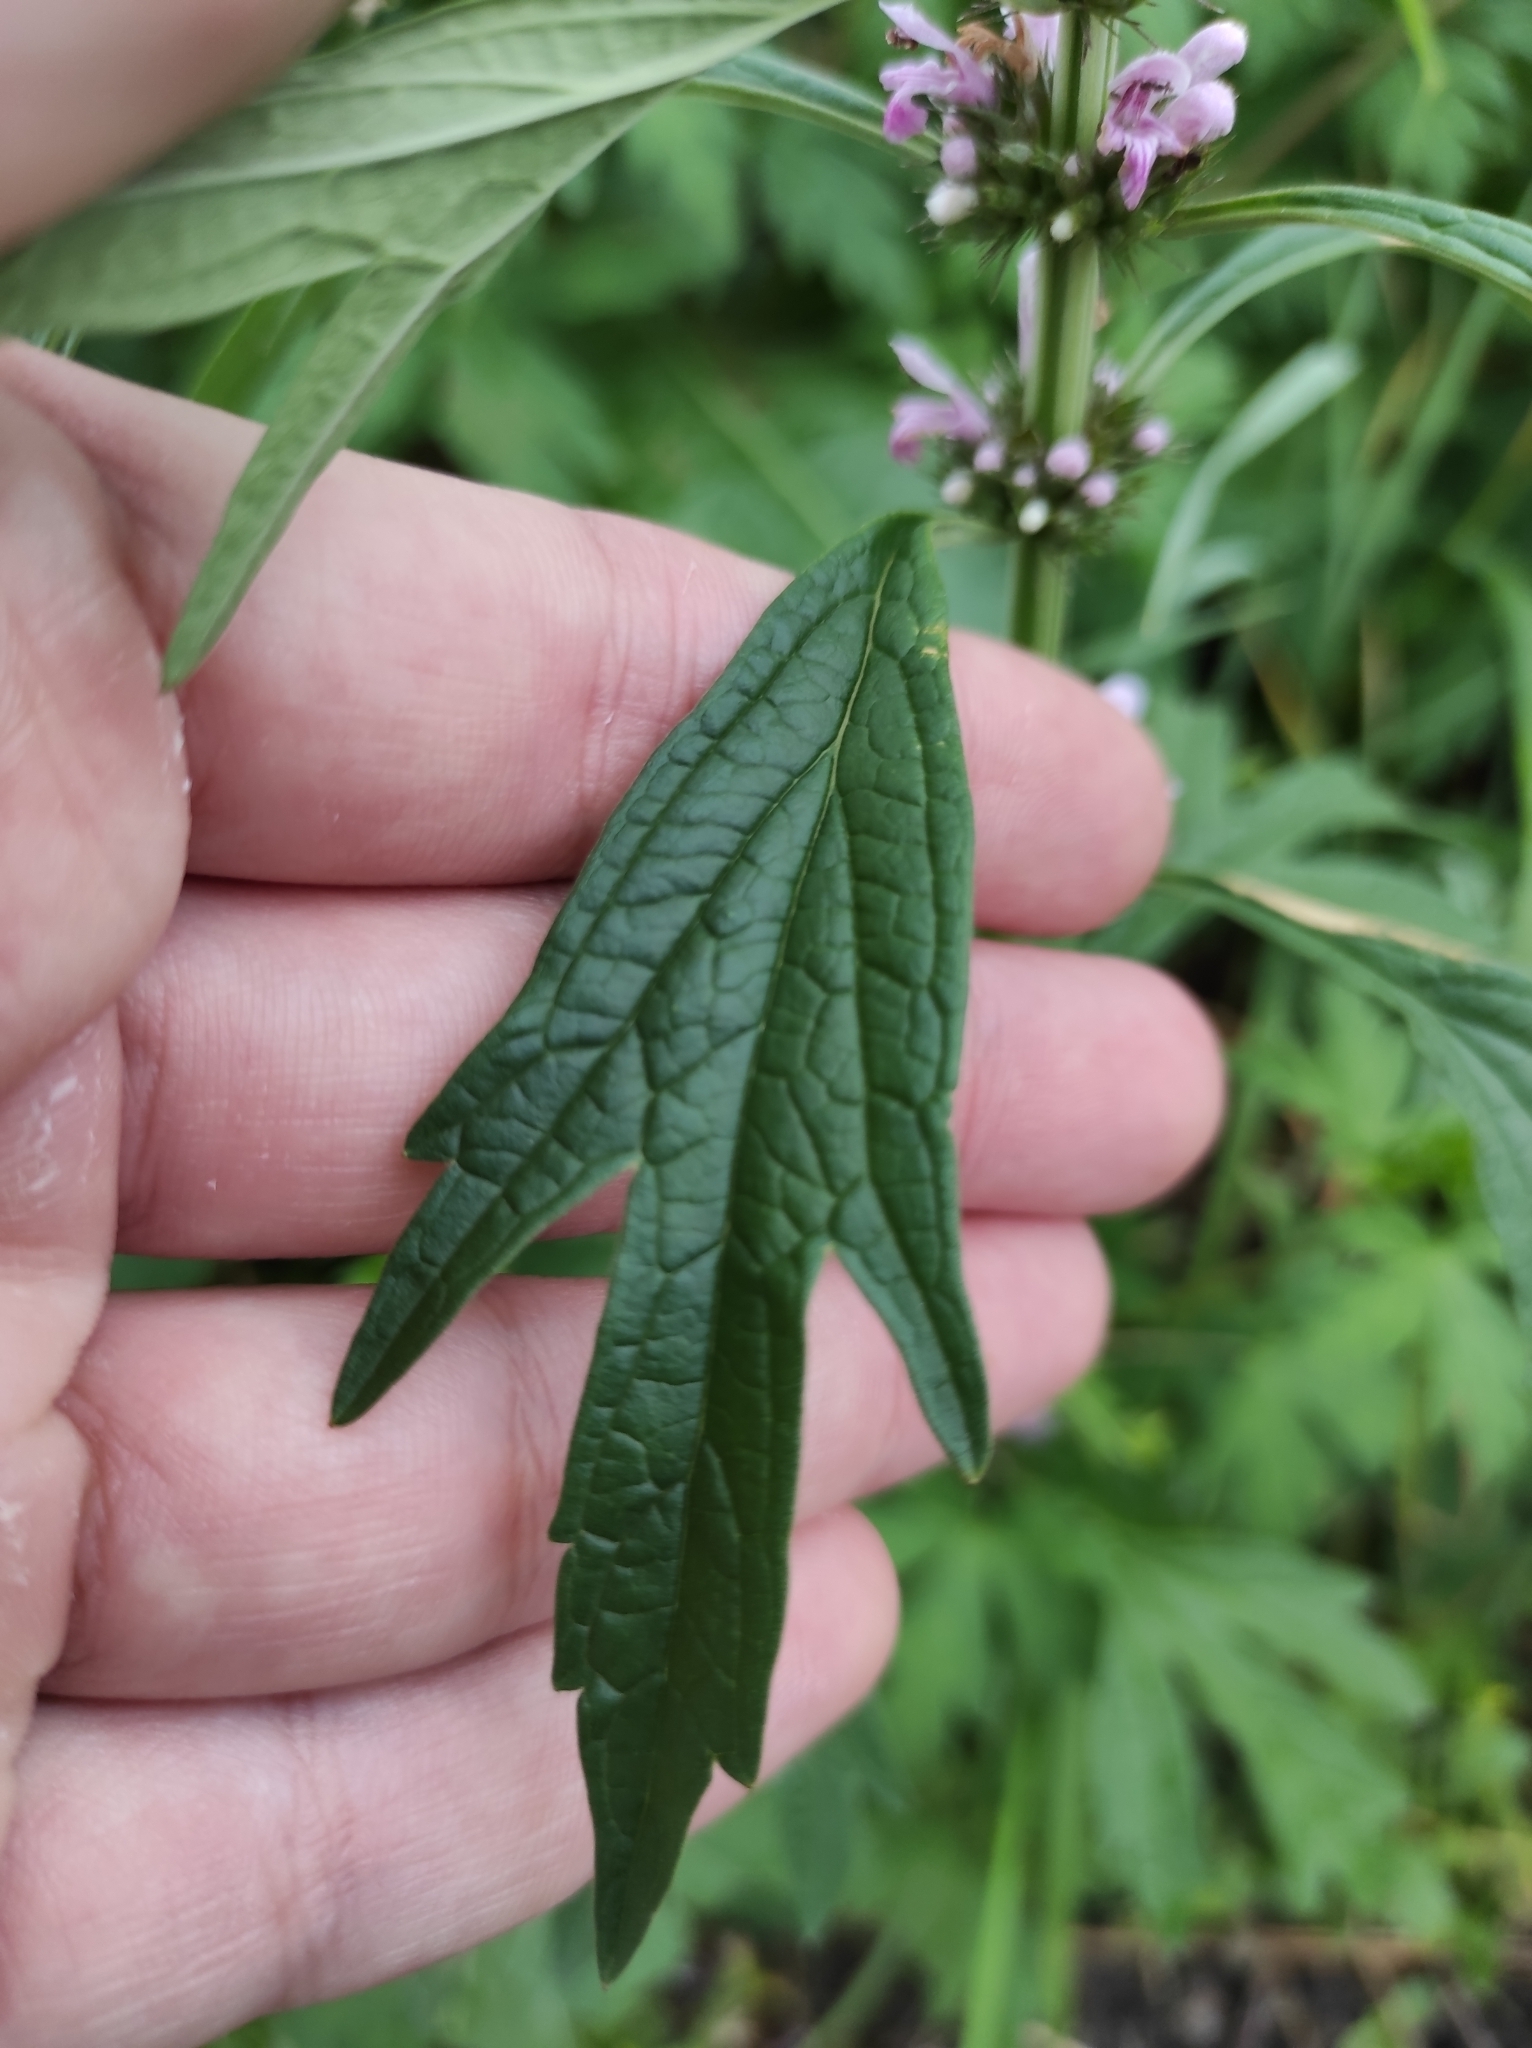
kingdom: Plantae
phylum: Tracheophyta
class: Magnoliopsida
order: Lamiales
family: Lamiaceae
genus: Leonurus
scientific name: Leonurus japonicus
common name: Honeyweed
